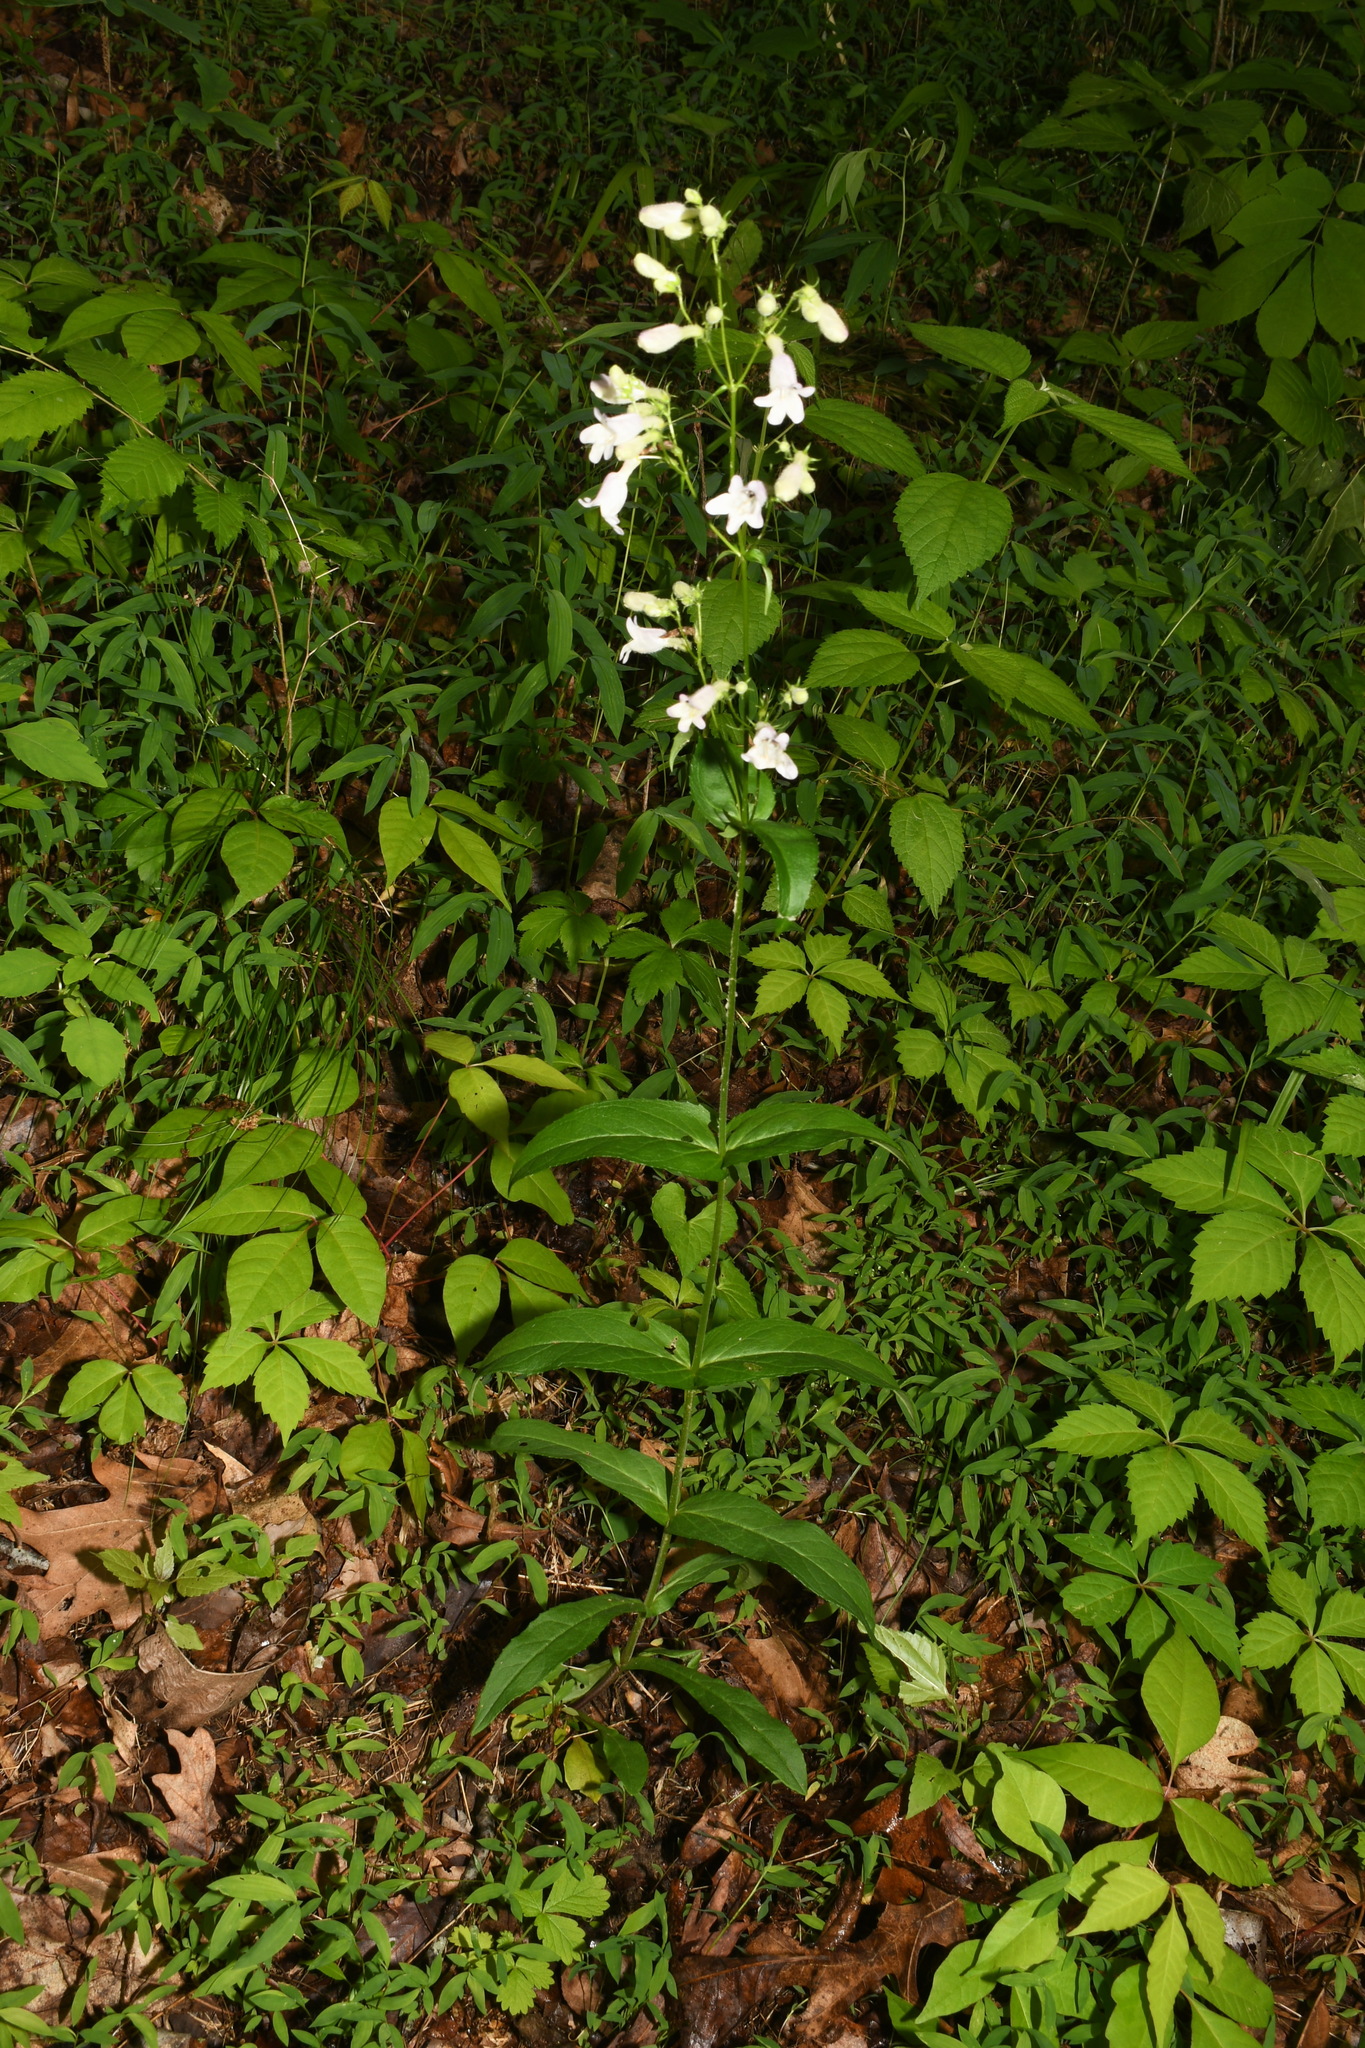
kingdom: Plantae
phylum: Tracheophyta
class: Magnoliopsida
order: Lamiales
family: Plantaginaceae
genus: Penstemon
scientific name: Penstemon calycosus
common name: Long-sepal beardtongue
